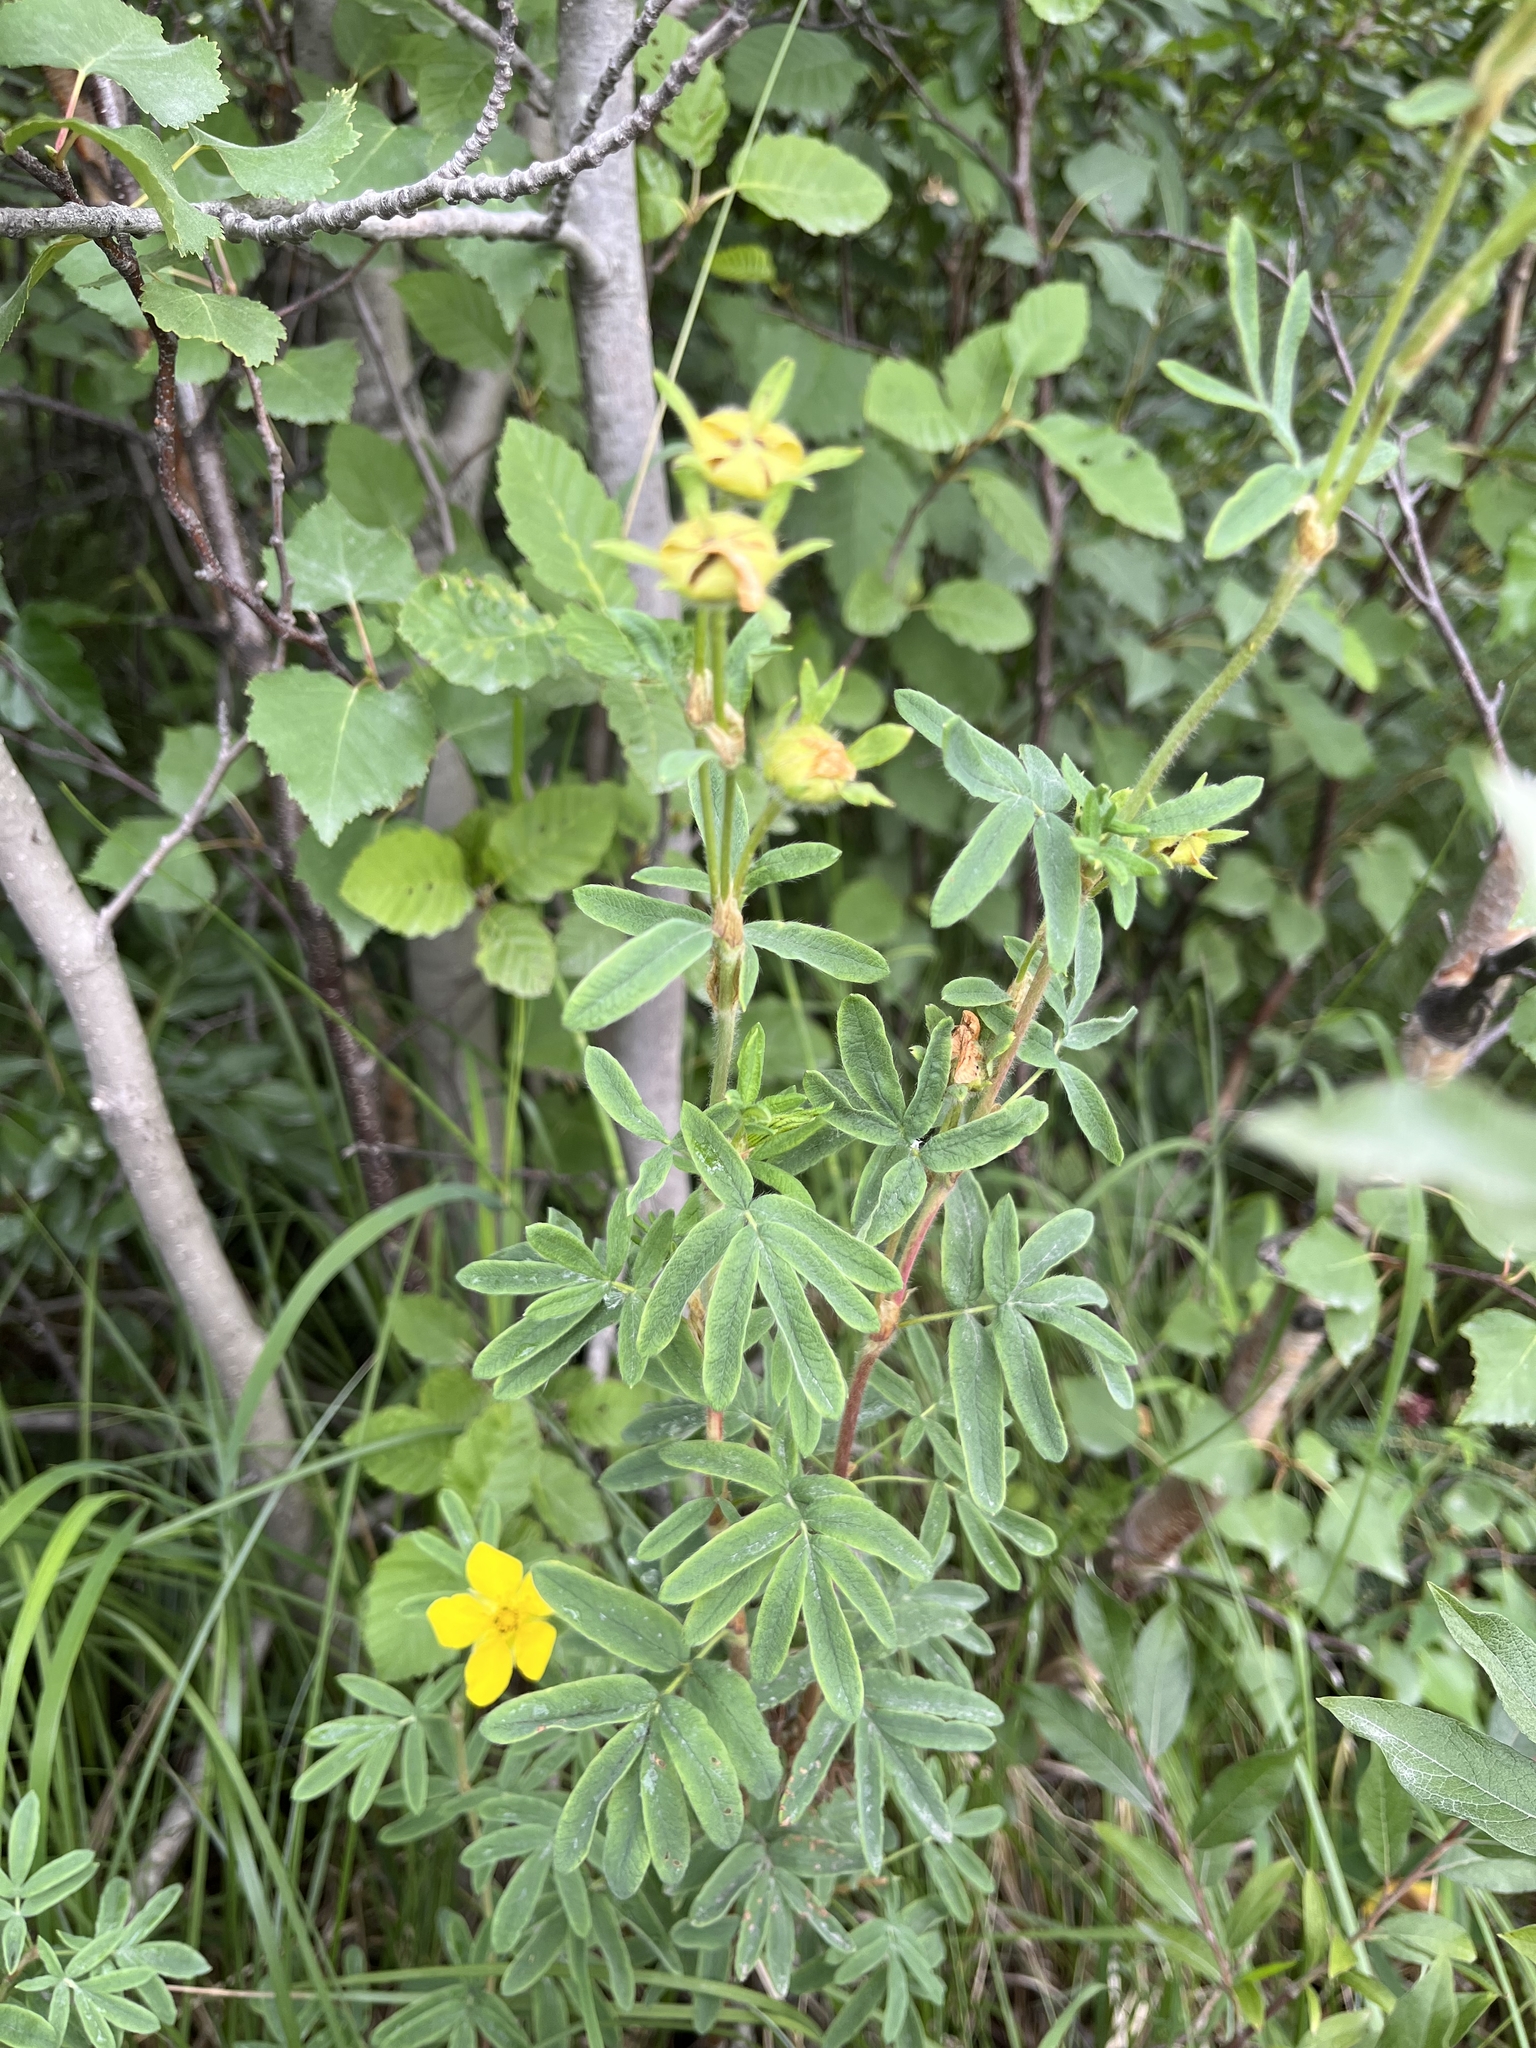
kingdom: Plantae
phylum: Tracheophyta
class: Magnoliopsida
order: Rosales
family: Rosaceae
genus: Dasiphora
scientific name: Dasiphora fruticosa
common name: Shrubby cinquefoil
